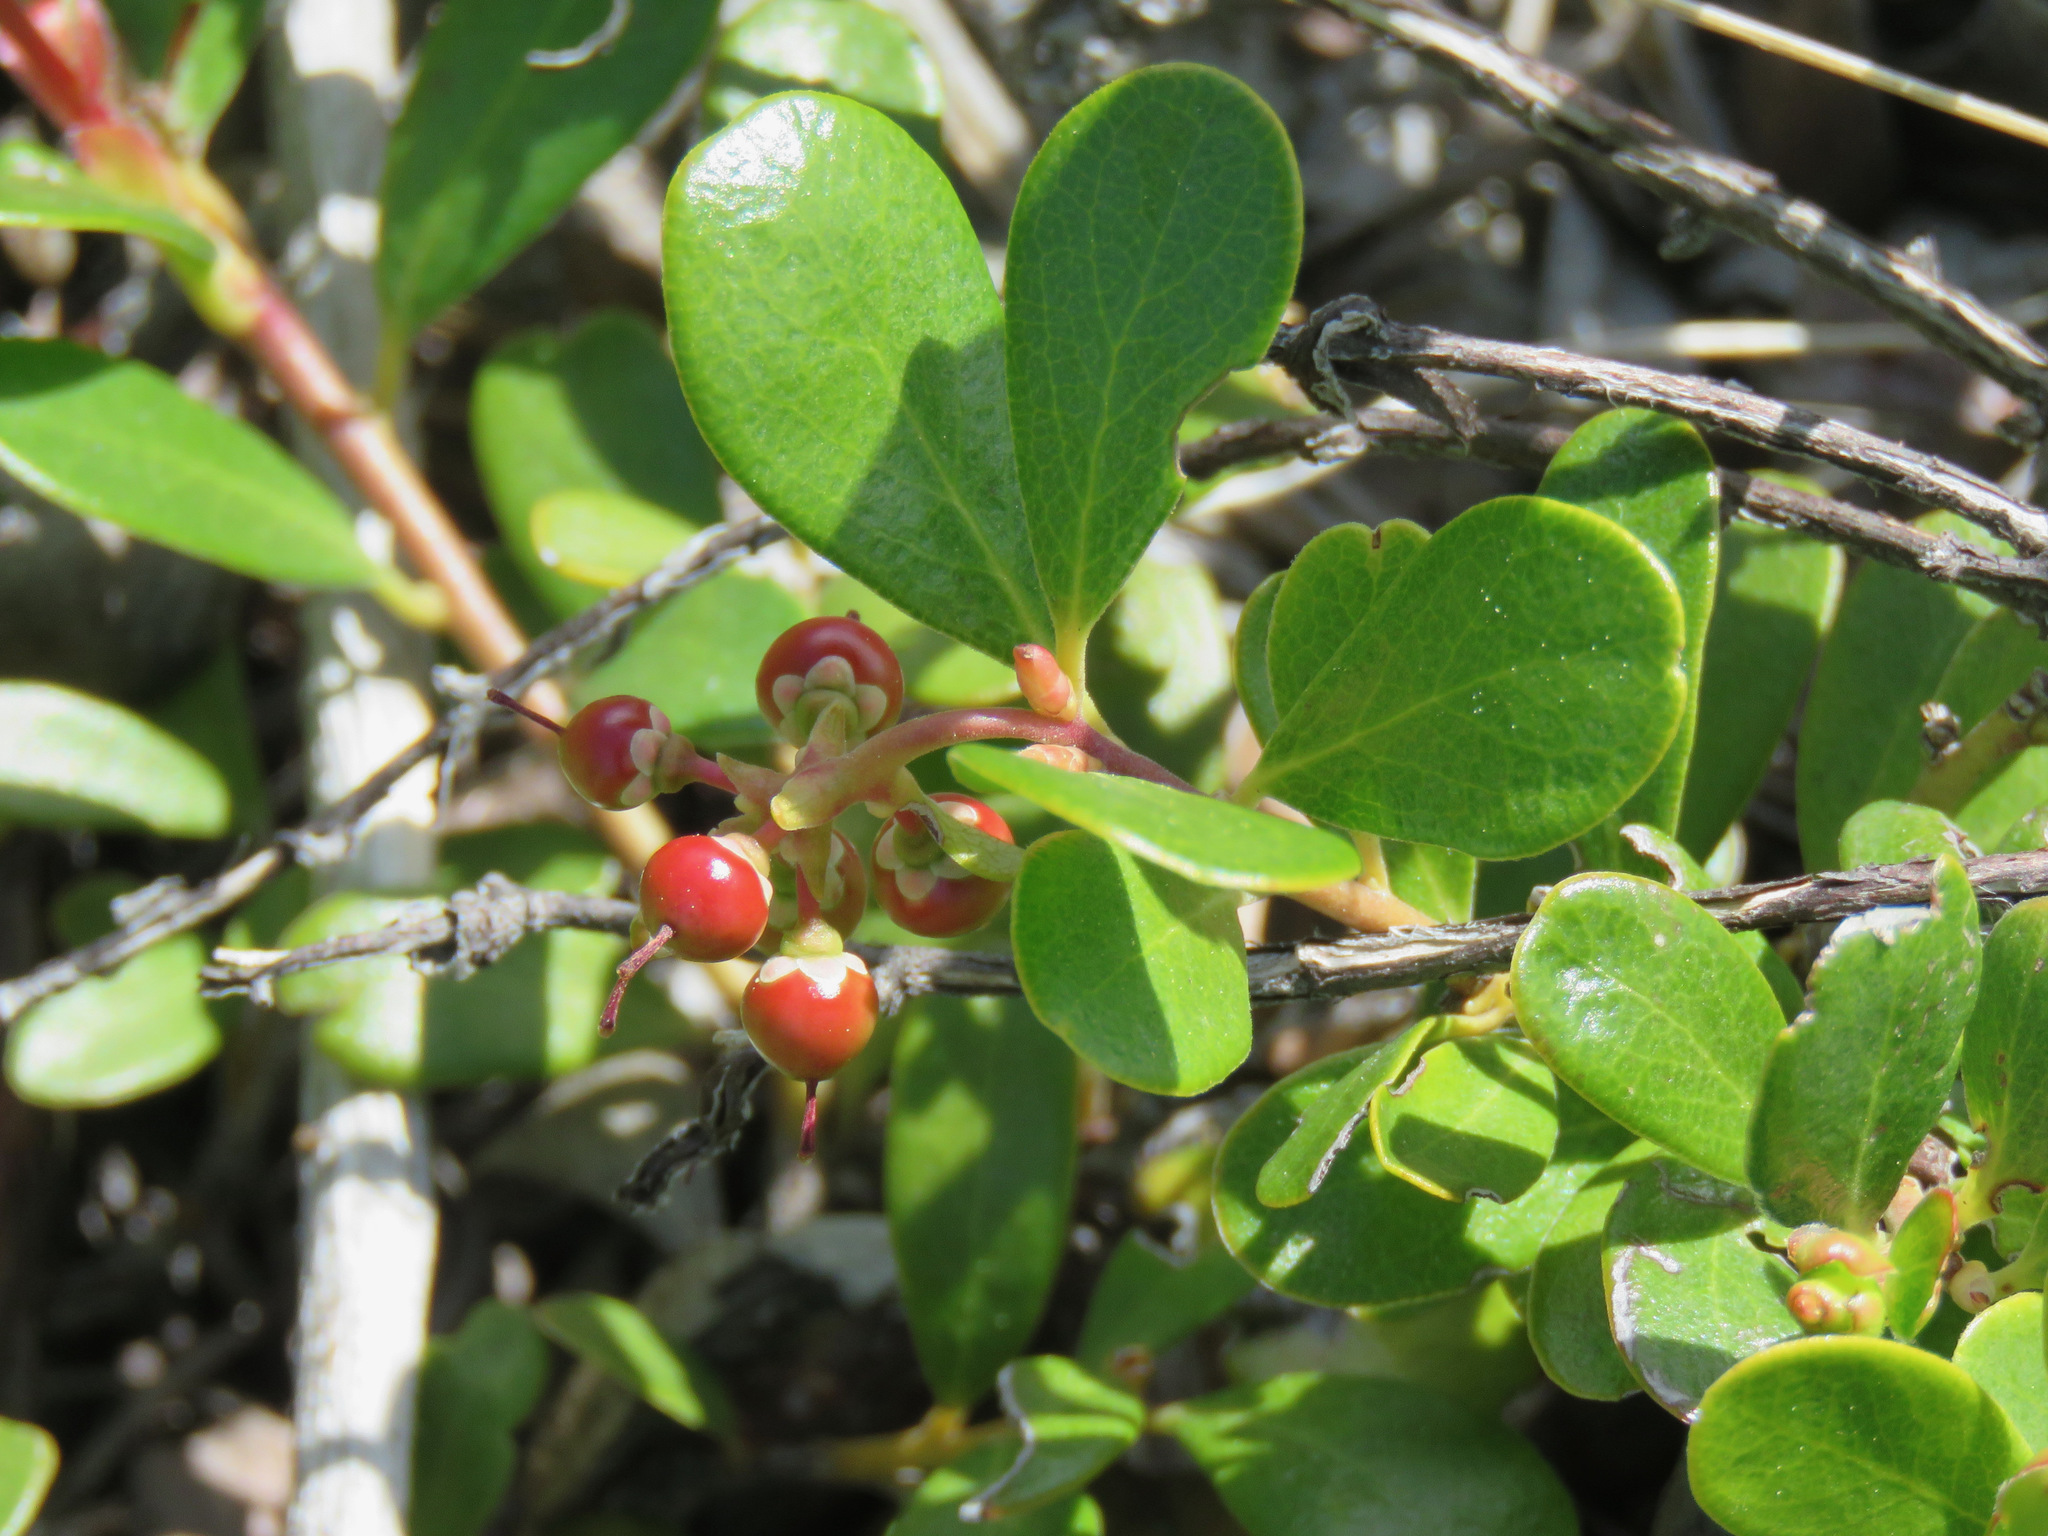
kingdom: Plantae
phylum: Tracheophyta
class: Magnoliopsida
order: Ericales
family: Ericaceae
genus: Arctostaphylos
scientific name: Arctostaphylos uva-ursi
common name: Bearberry
